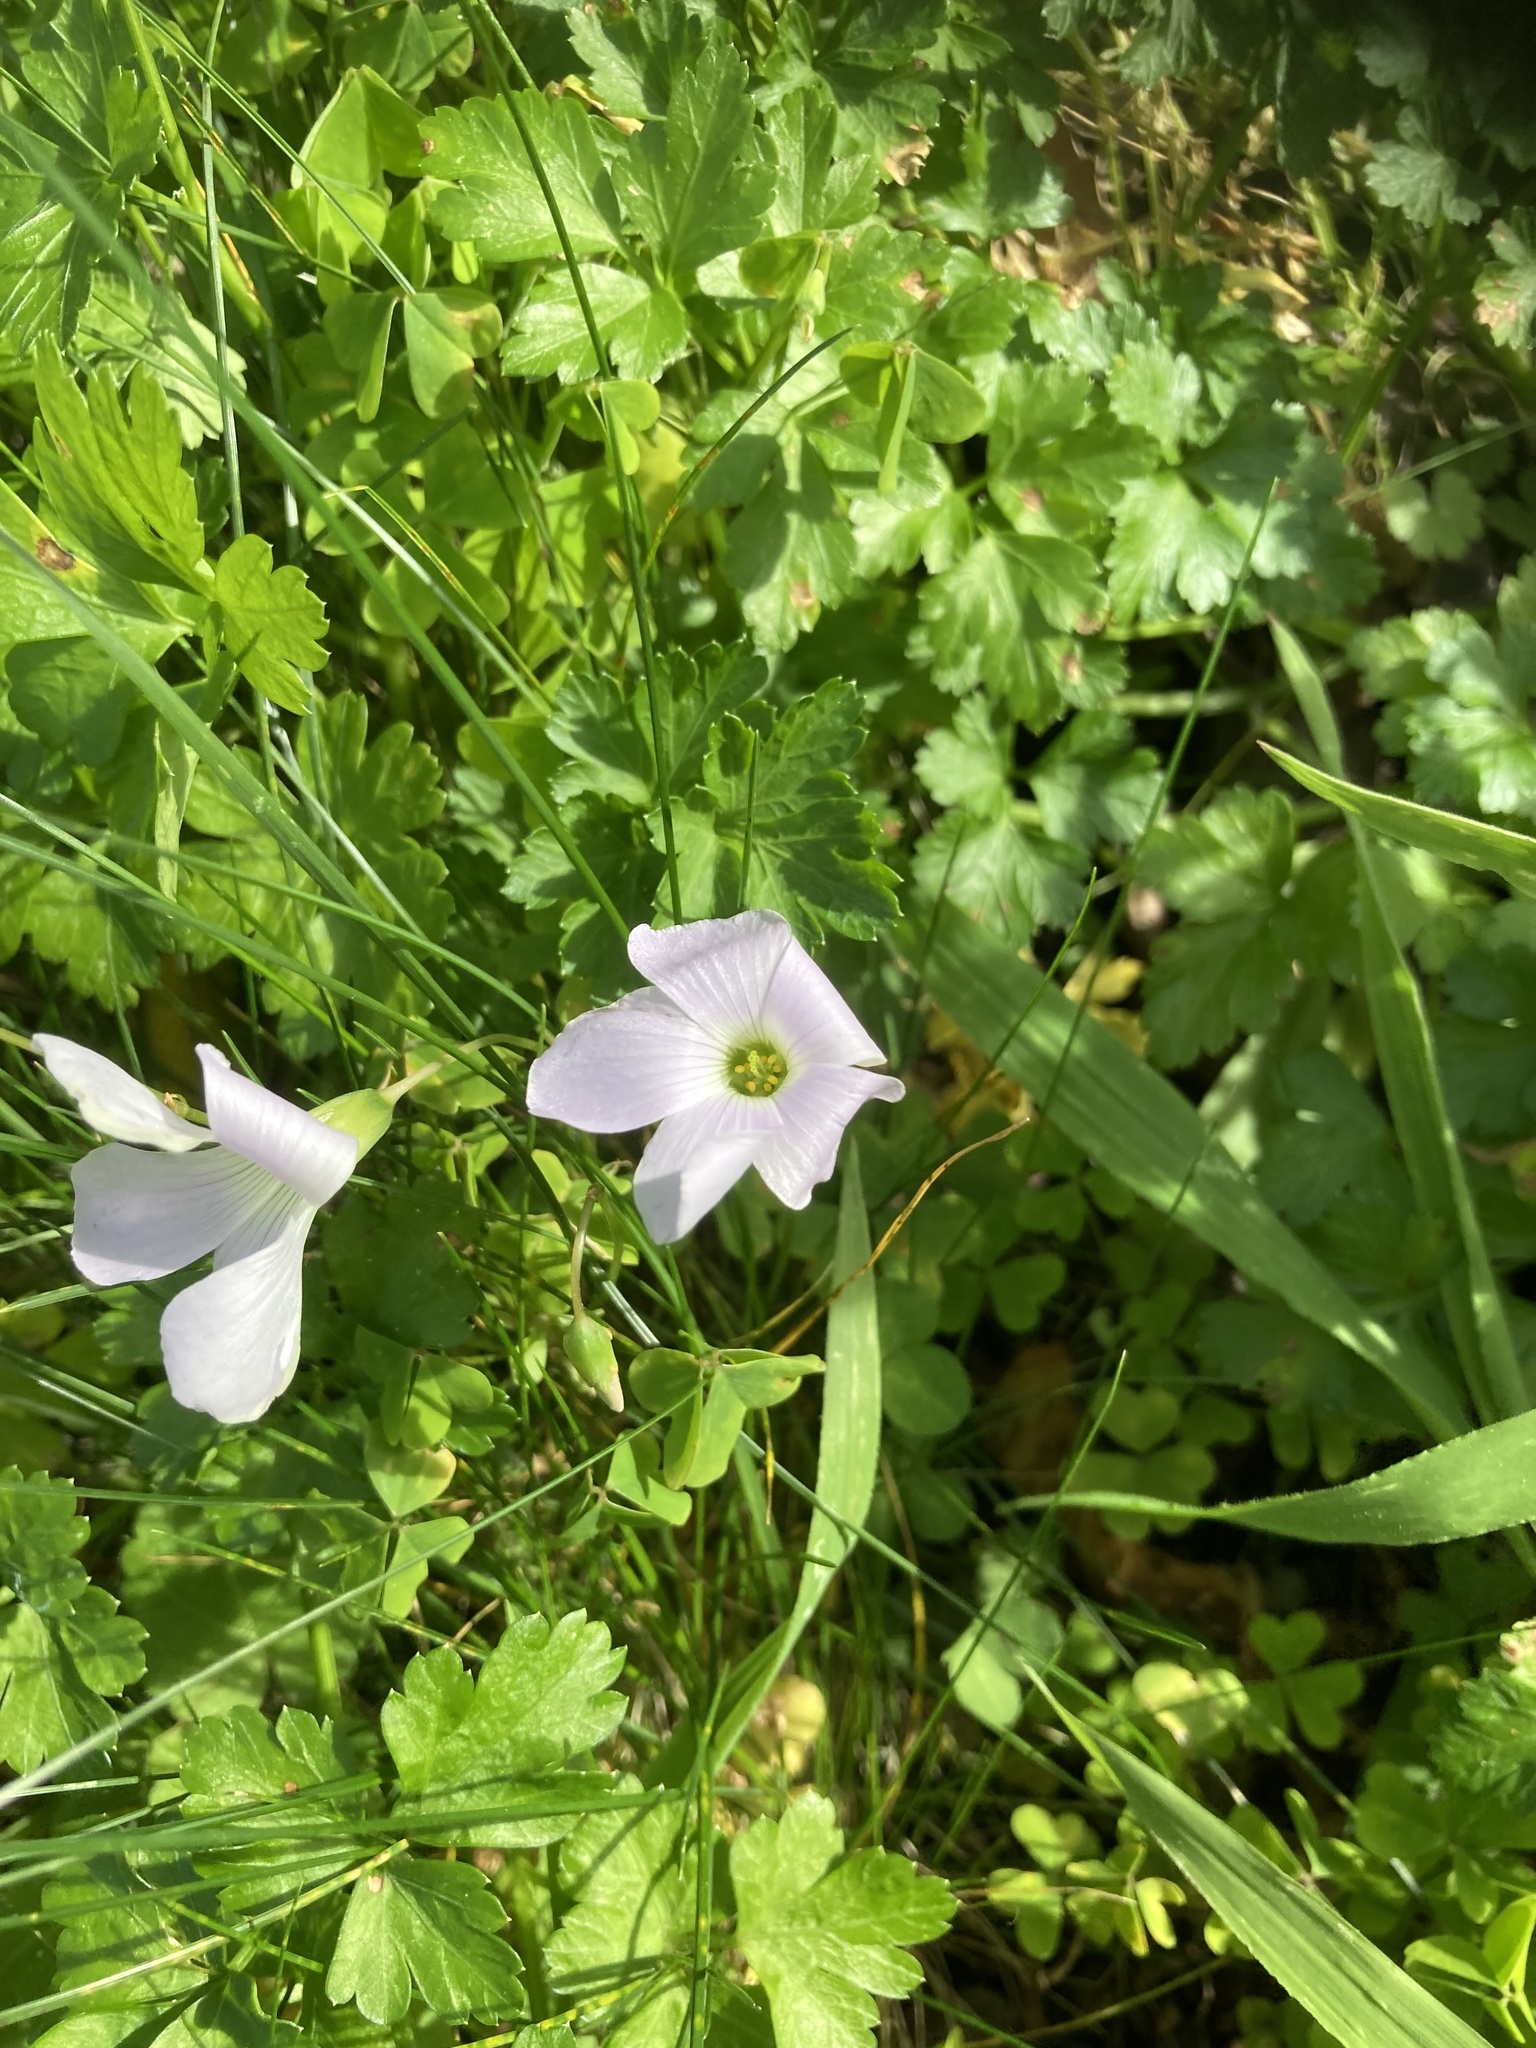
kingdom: Plantae
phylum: Tracheophyta
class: Magnoliopsida
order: Oxalidales
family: Oxalidaceae
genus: Oxalis
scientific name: Oxalis incarnata
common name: Pale pink-sorrel
